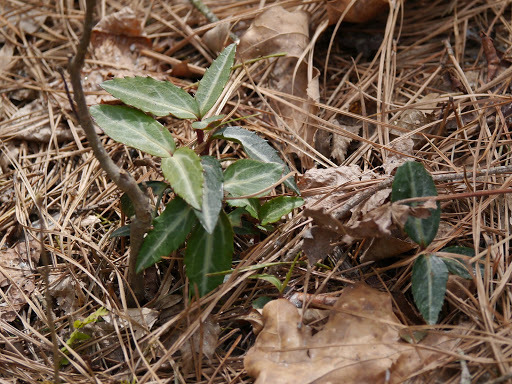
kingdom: Plantae
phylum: Tracheophyta
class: Magnoliopsida
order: Ericales
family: Ericaceae
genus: Chimaphila
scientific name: Chimaphila maculata
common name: Spotted pipsissewa
